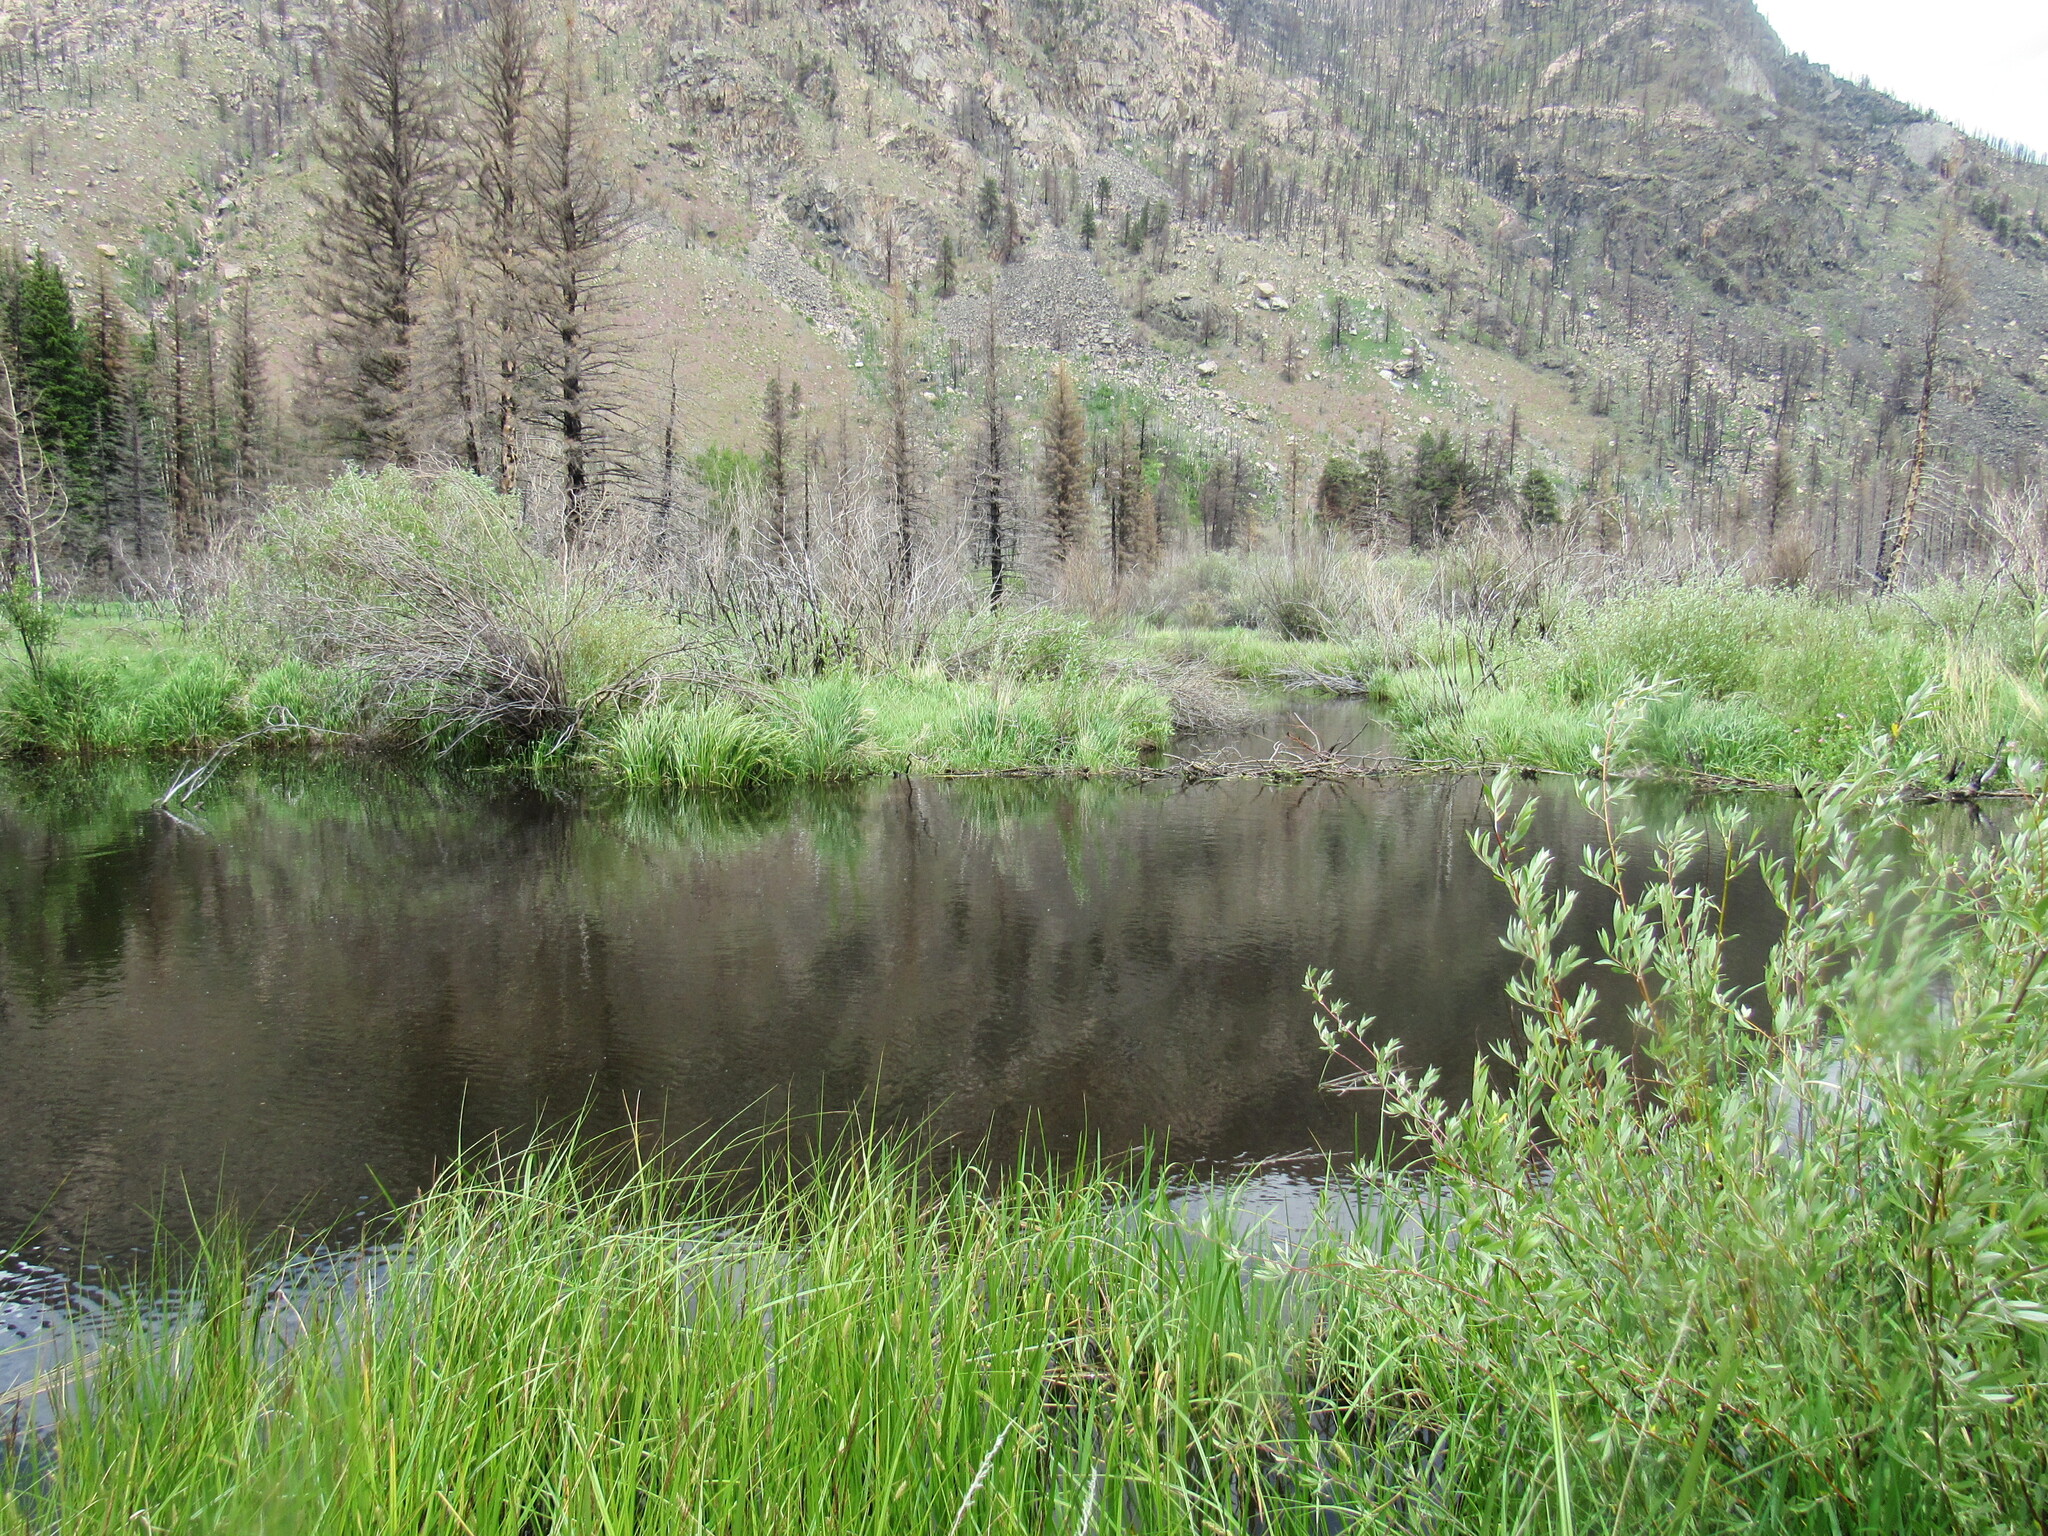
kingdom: Animalia
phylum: Chordata
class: Mammalia
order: Rodentia
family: Castoridae
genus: Castor
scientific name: Castor canadensis
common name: American beaver
